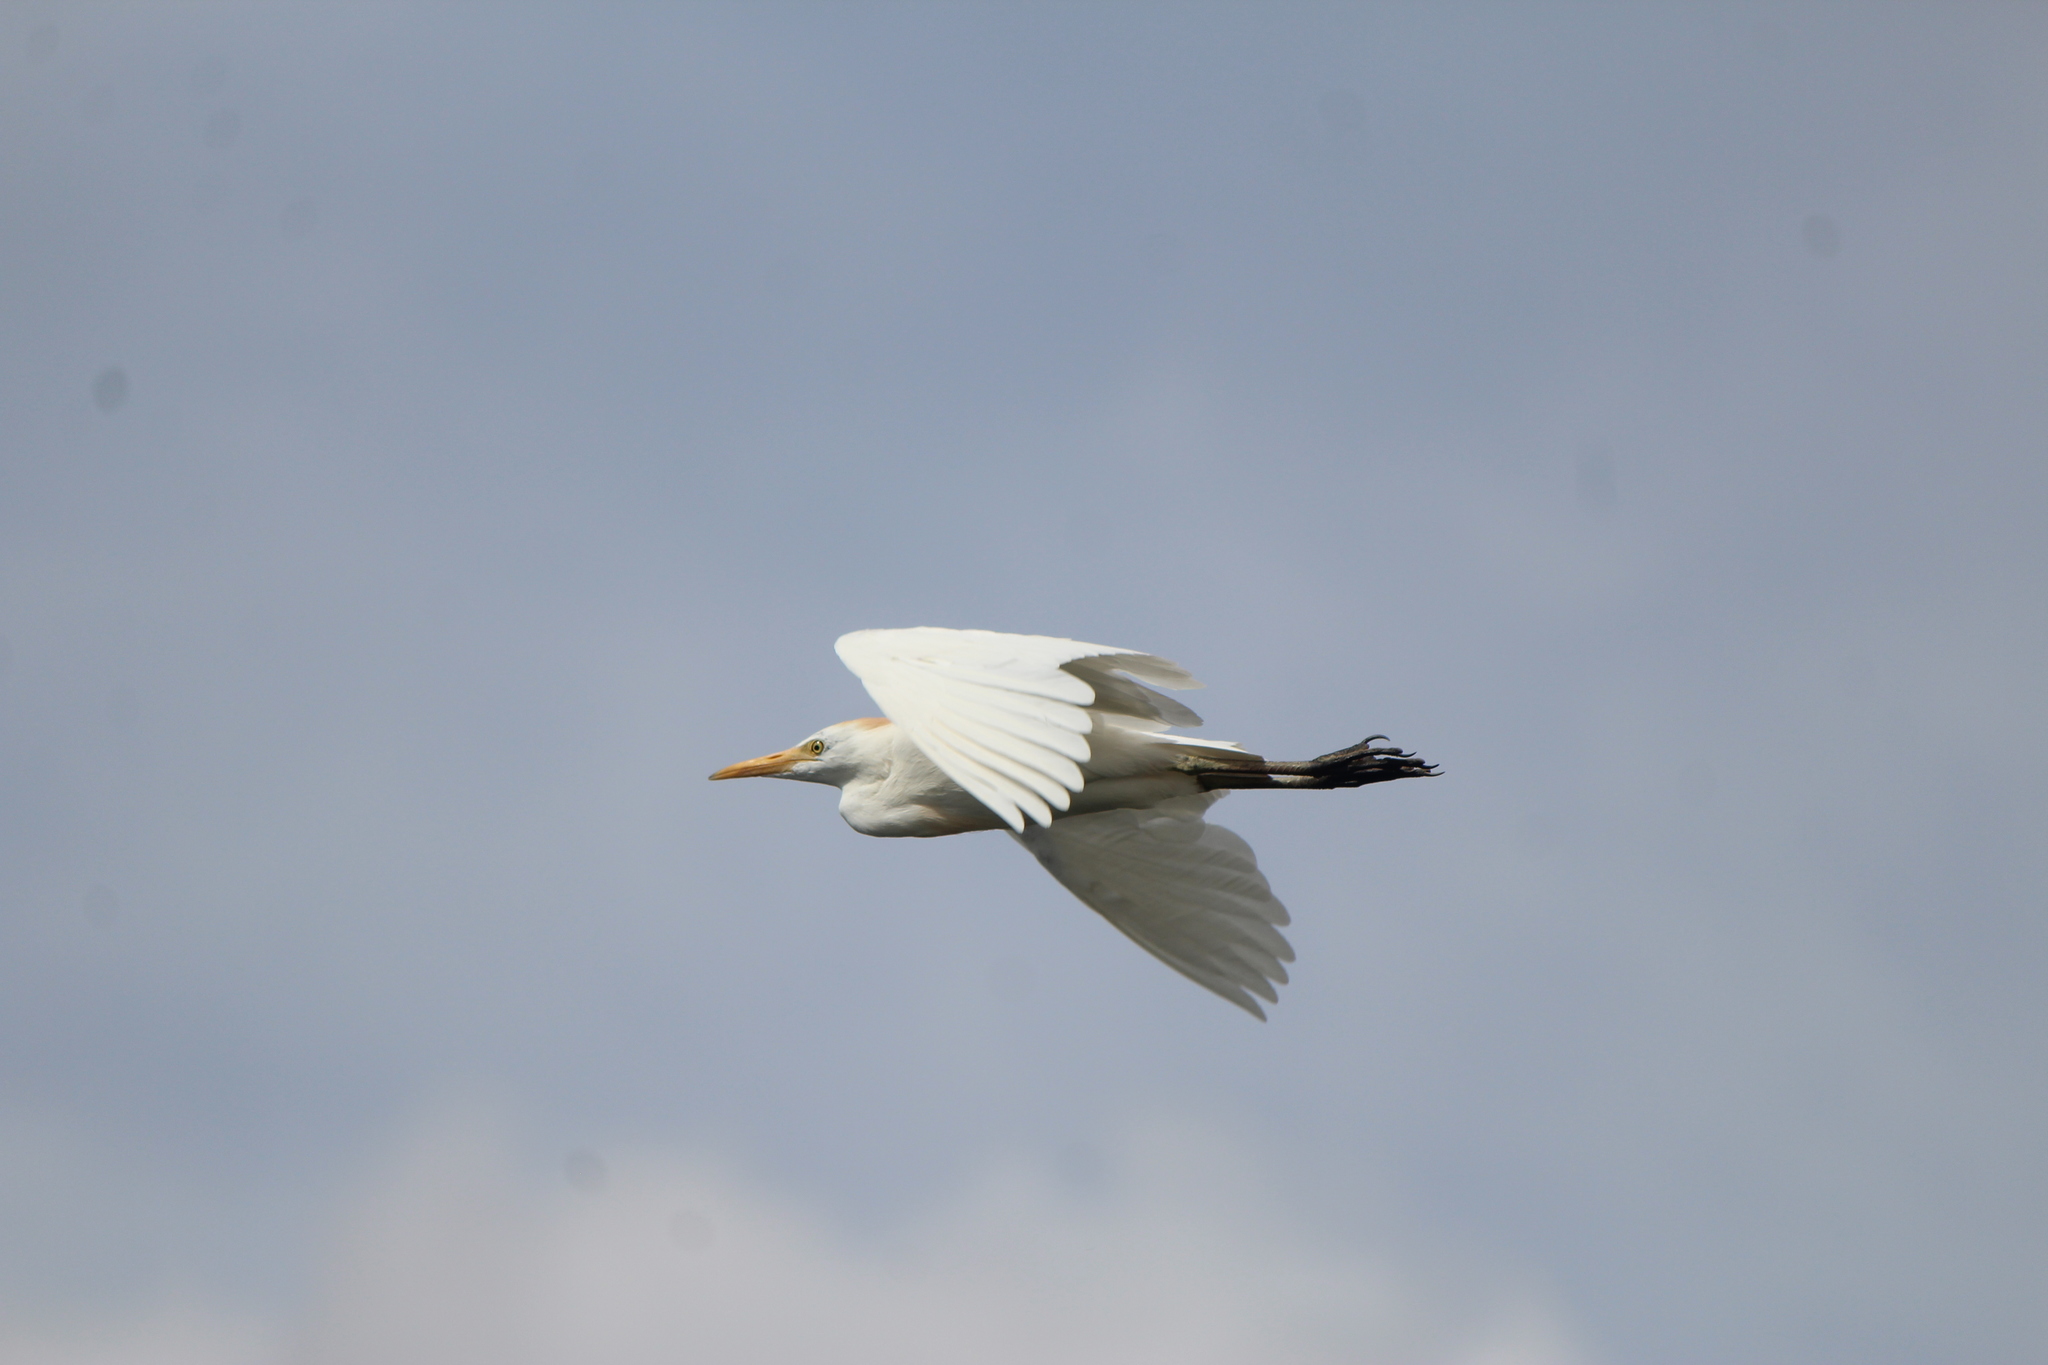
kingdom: Animalia
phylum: Chordata
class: Aves
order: Pelecaniformes
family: Ardeidae
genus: Bubulcus
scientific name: Bubulcus ibis
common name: Cattle egret
